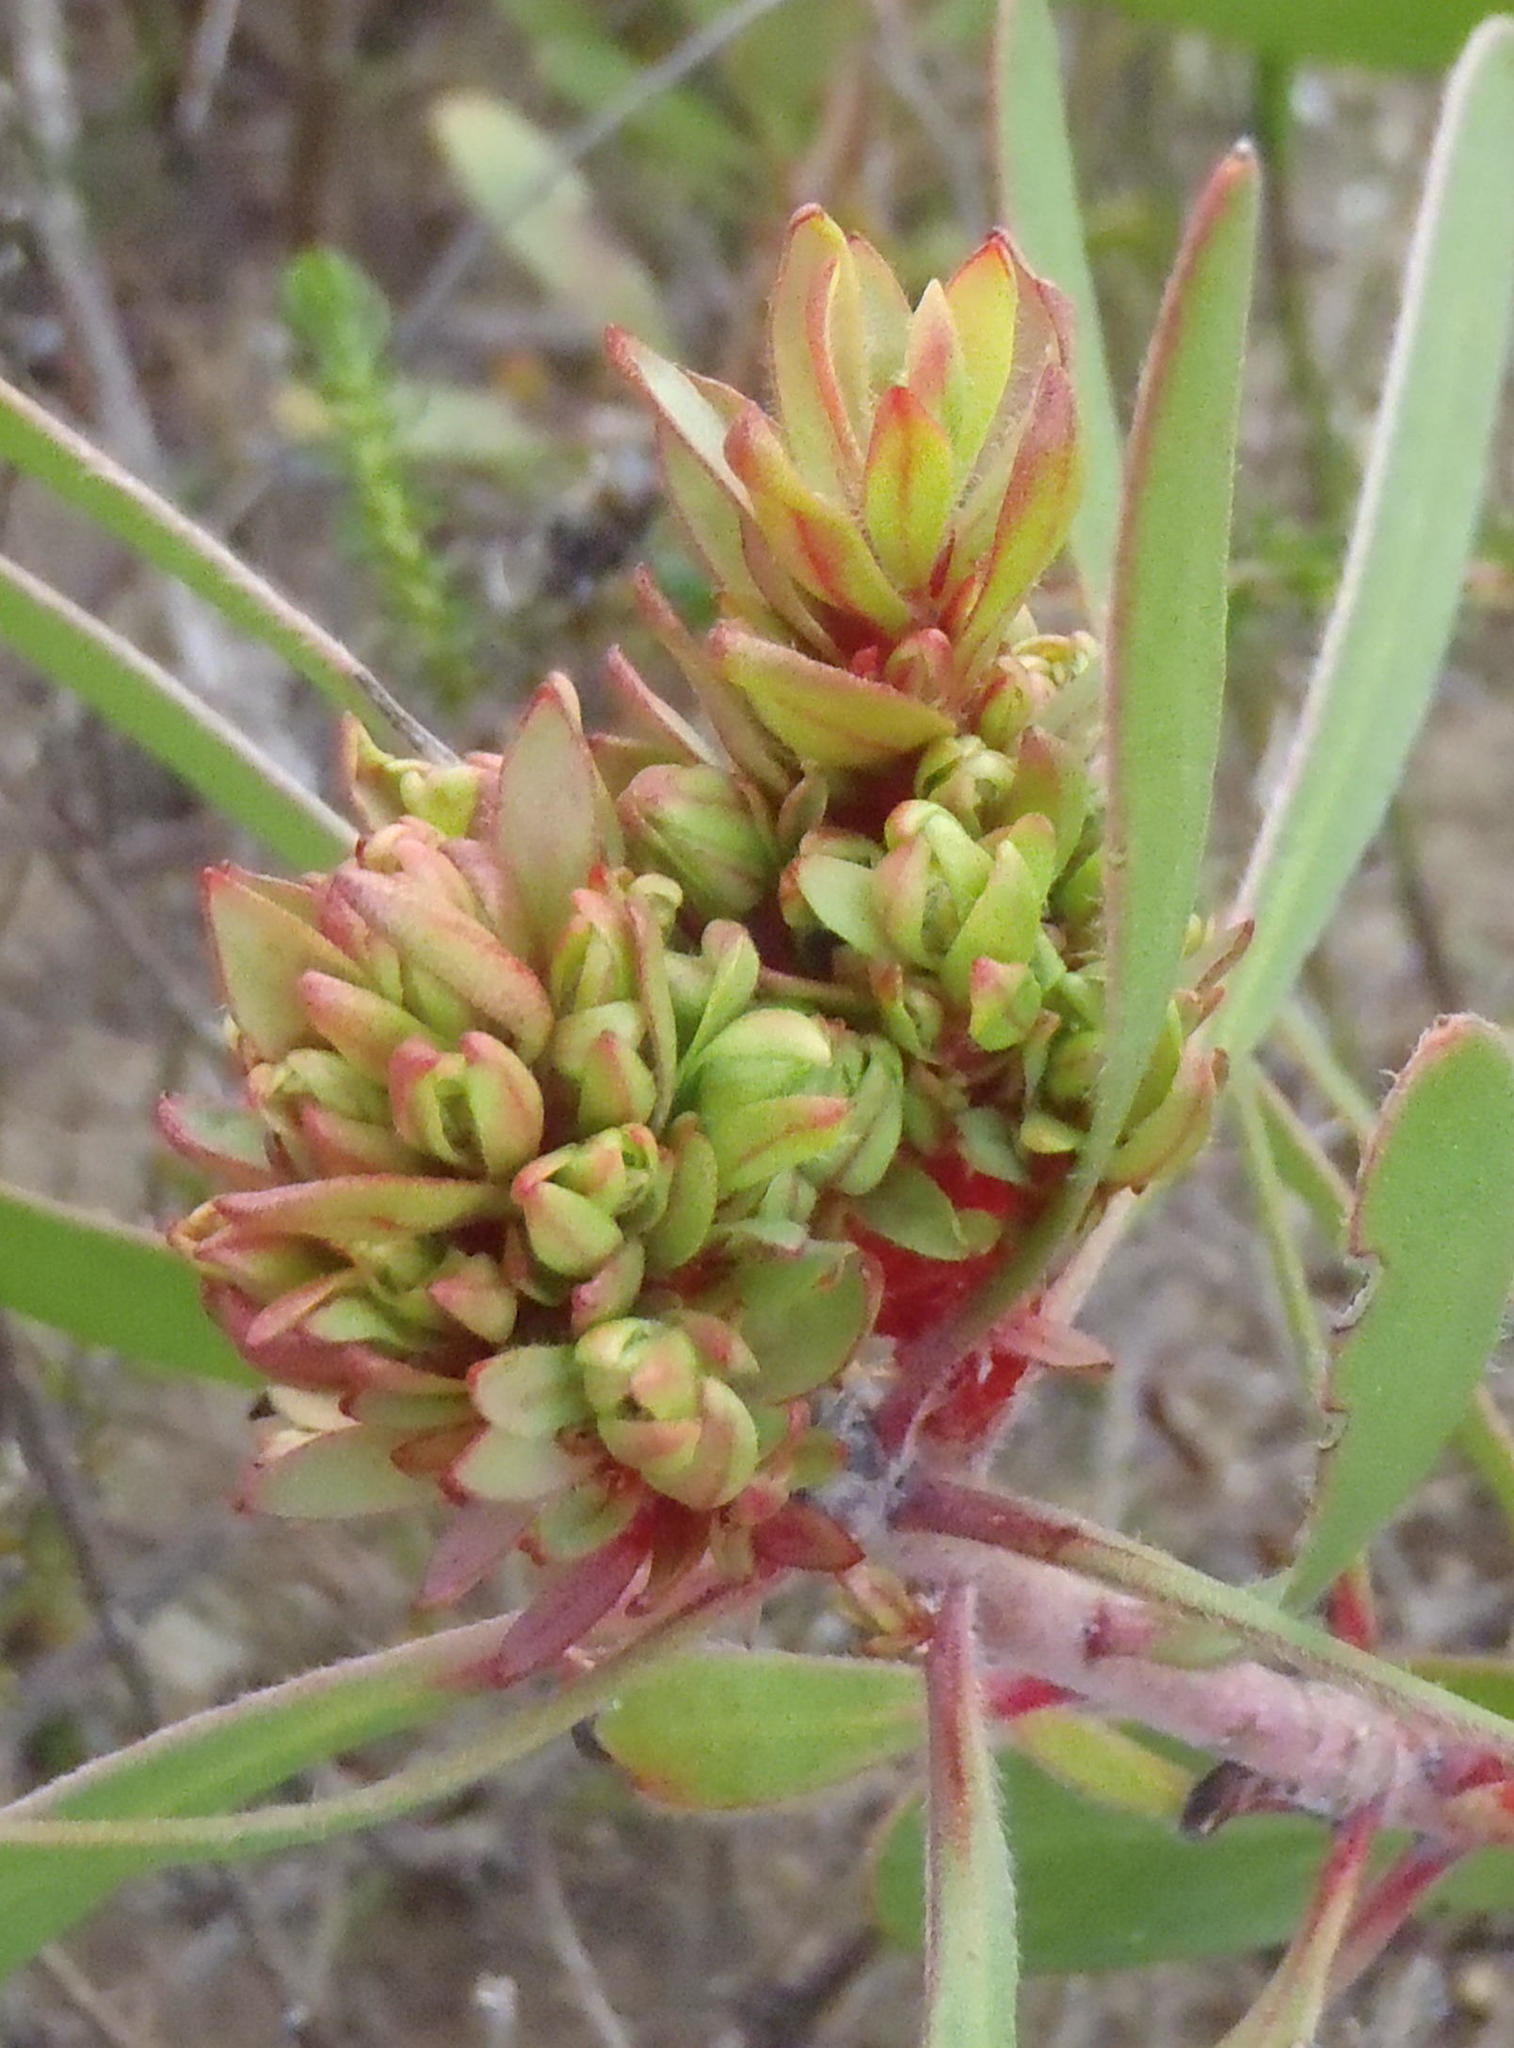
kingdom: Bacteria
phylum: Firmicutes
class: Bacilli
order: Acholeplasmatales
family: Acholeplasmataceae
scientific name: Acholeplasmataceae
